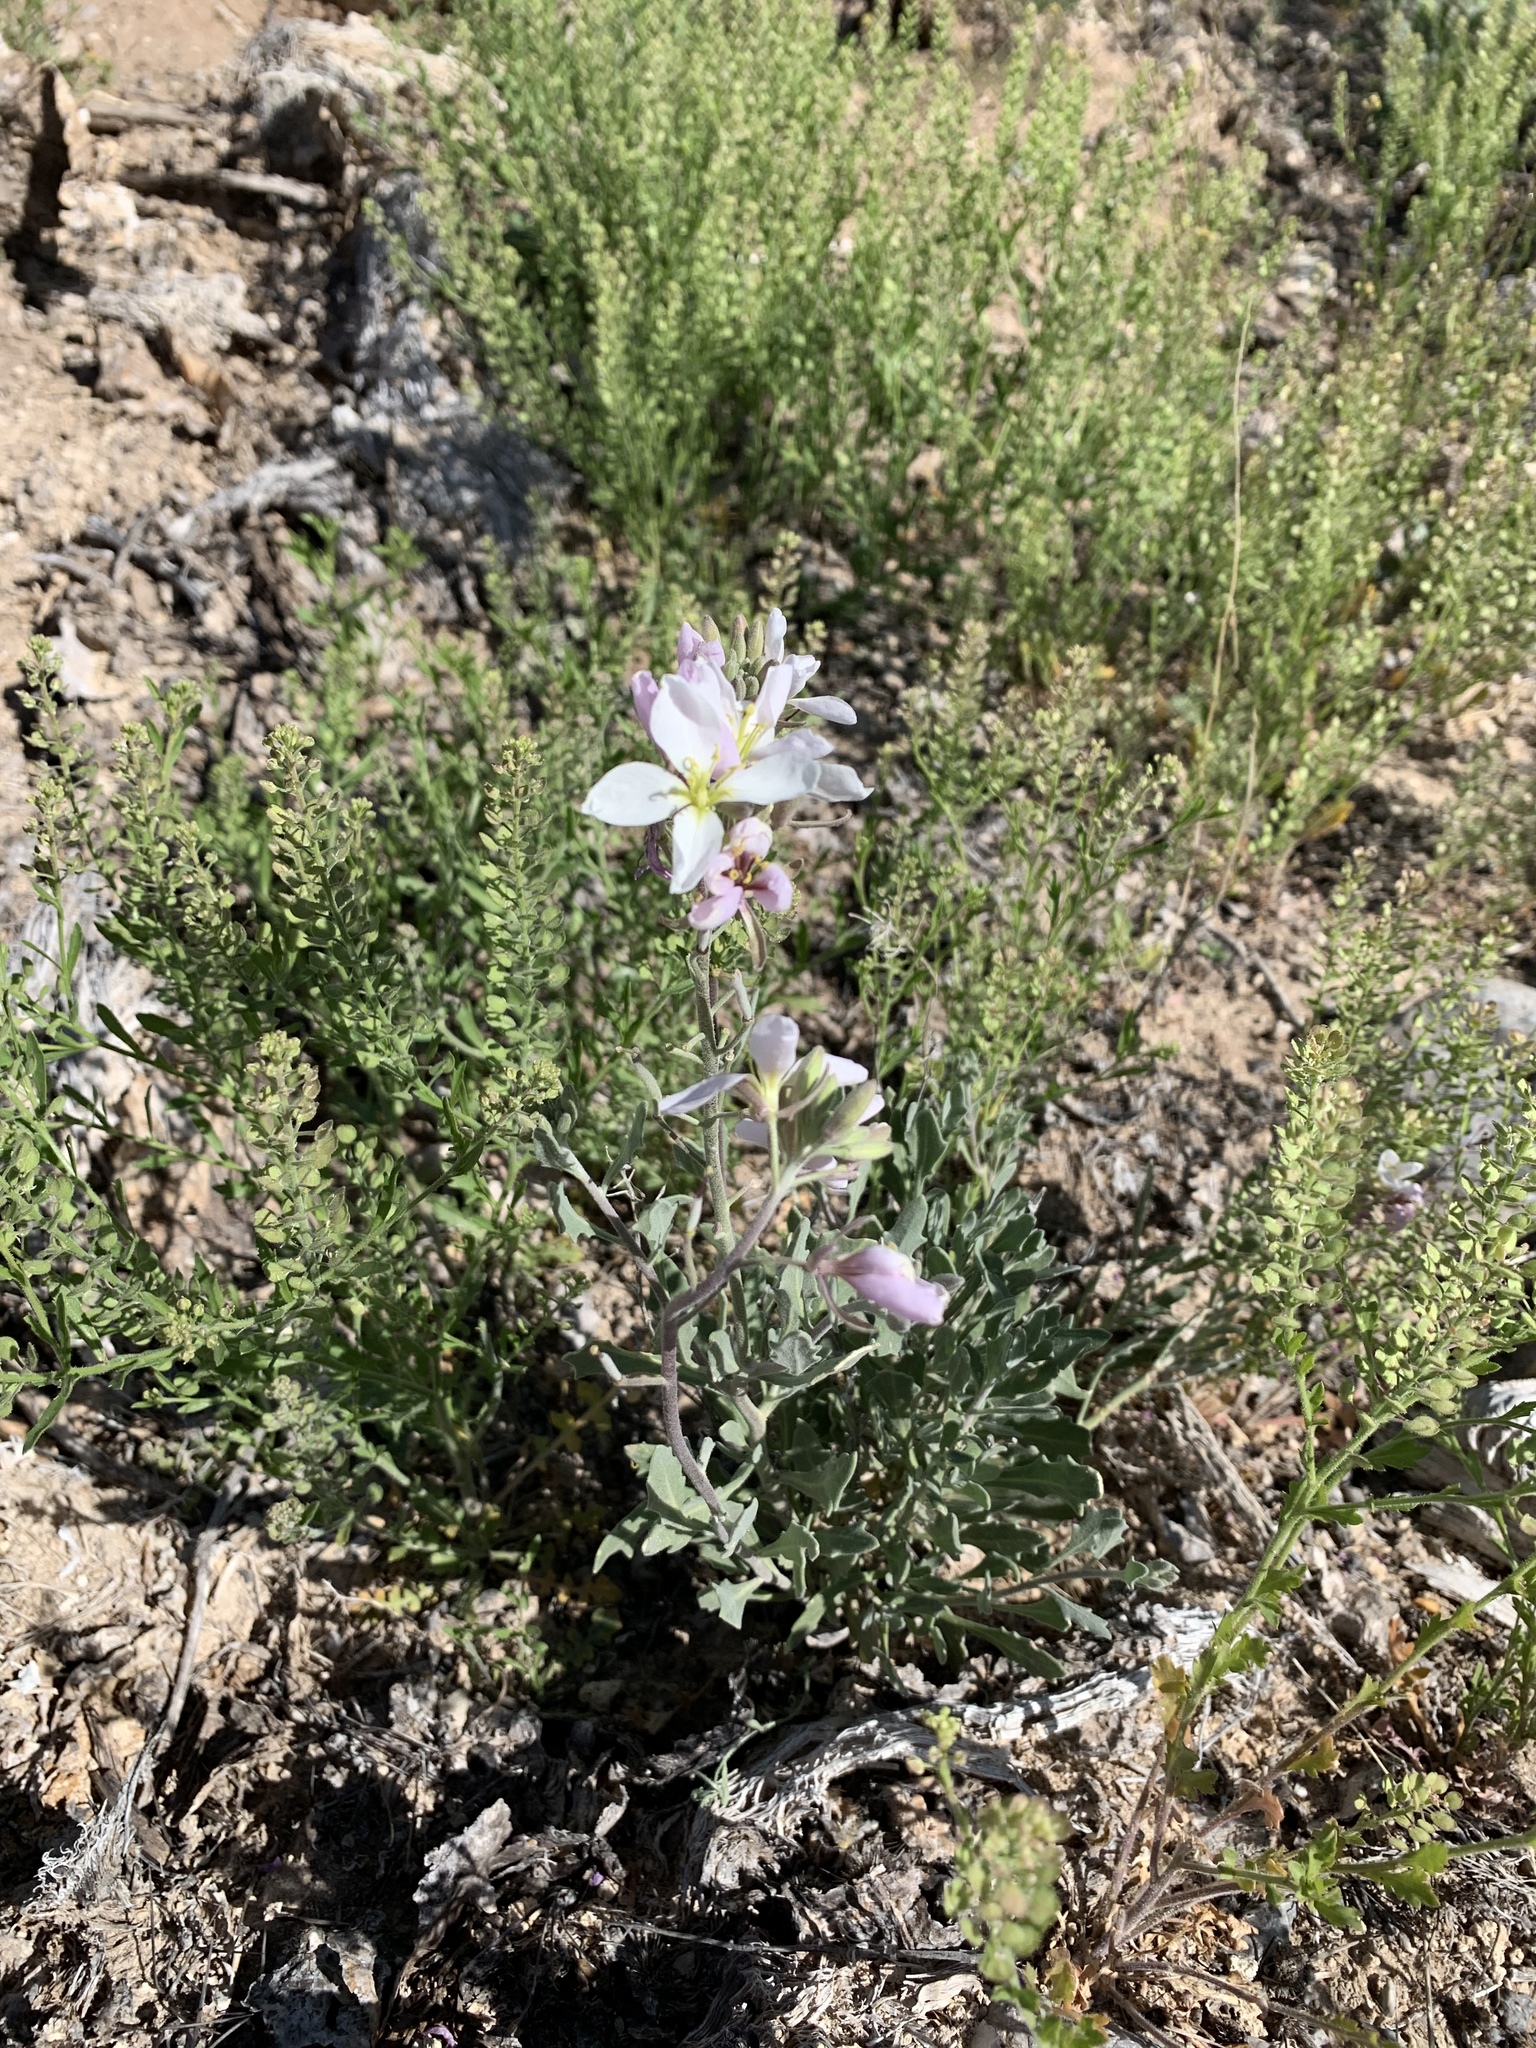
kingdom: Plantae
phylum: Tracheophyta
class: Magnoliopsida
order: Brassicales
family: Brassicaceae
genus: Nerisyrenia
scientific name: Nerisyrenia camporum
